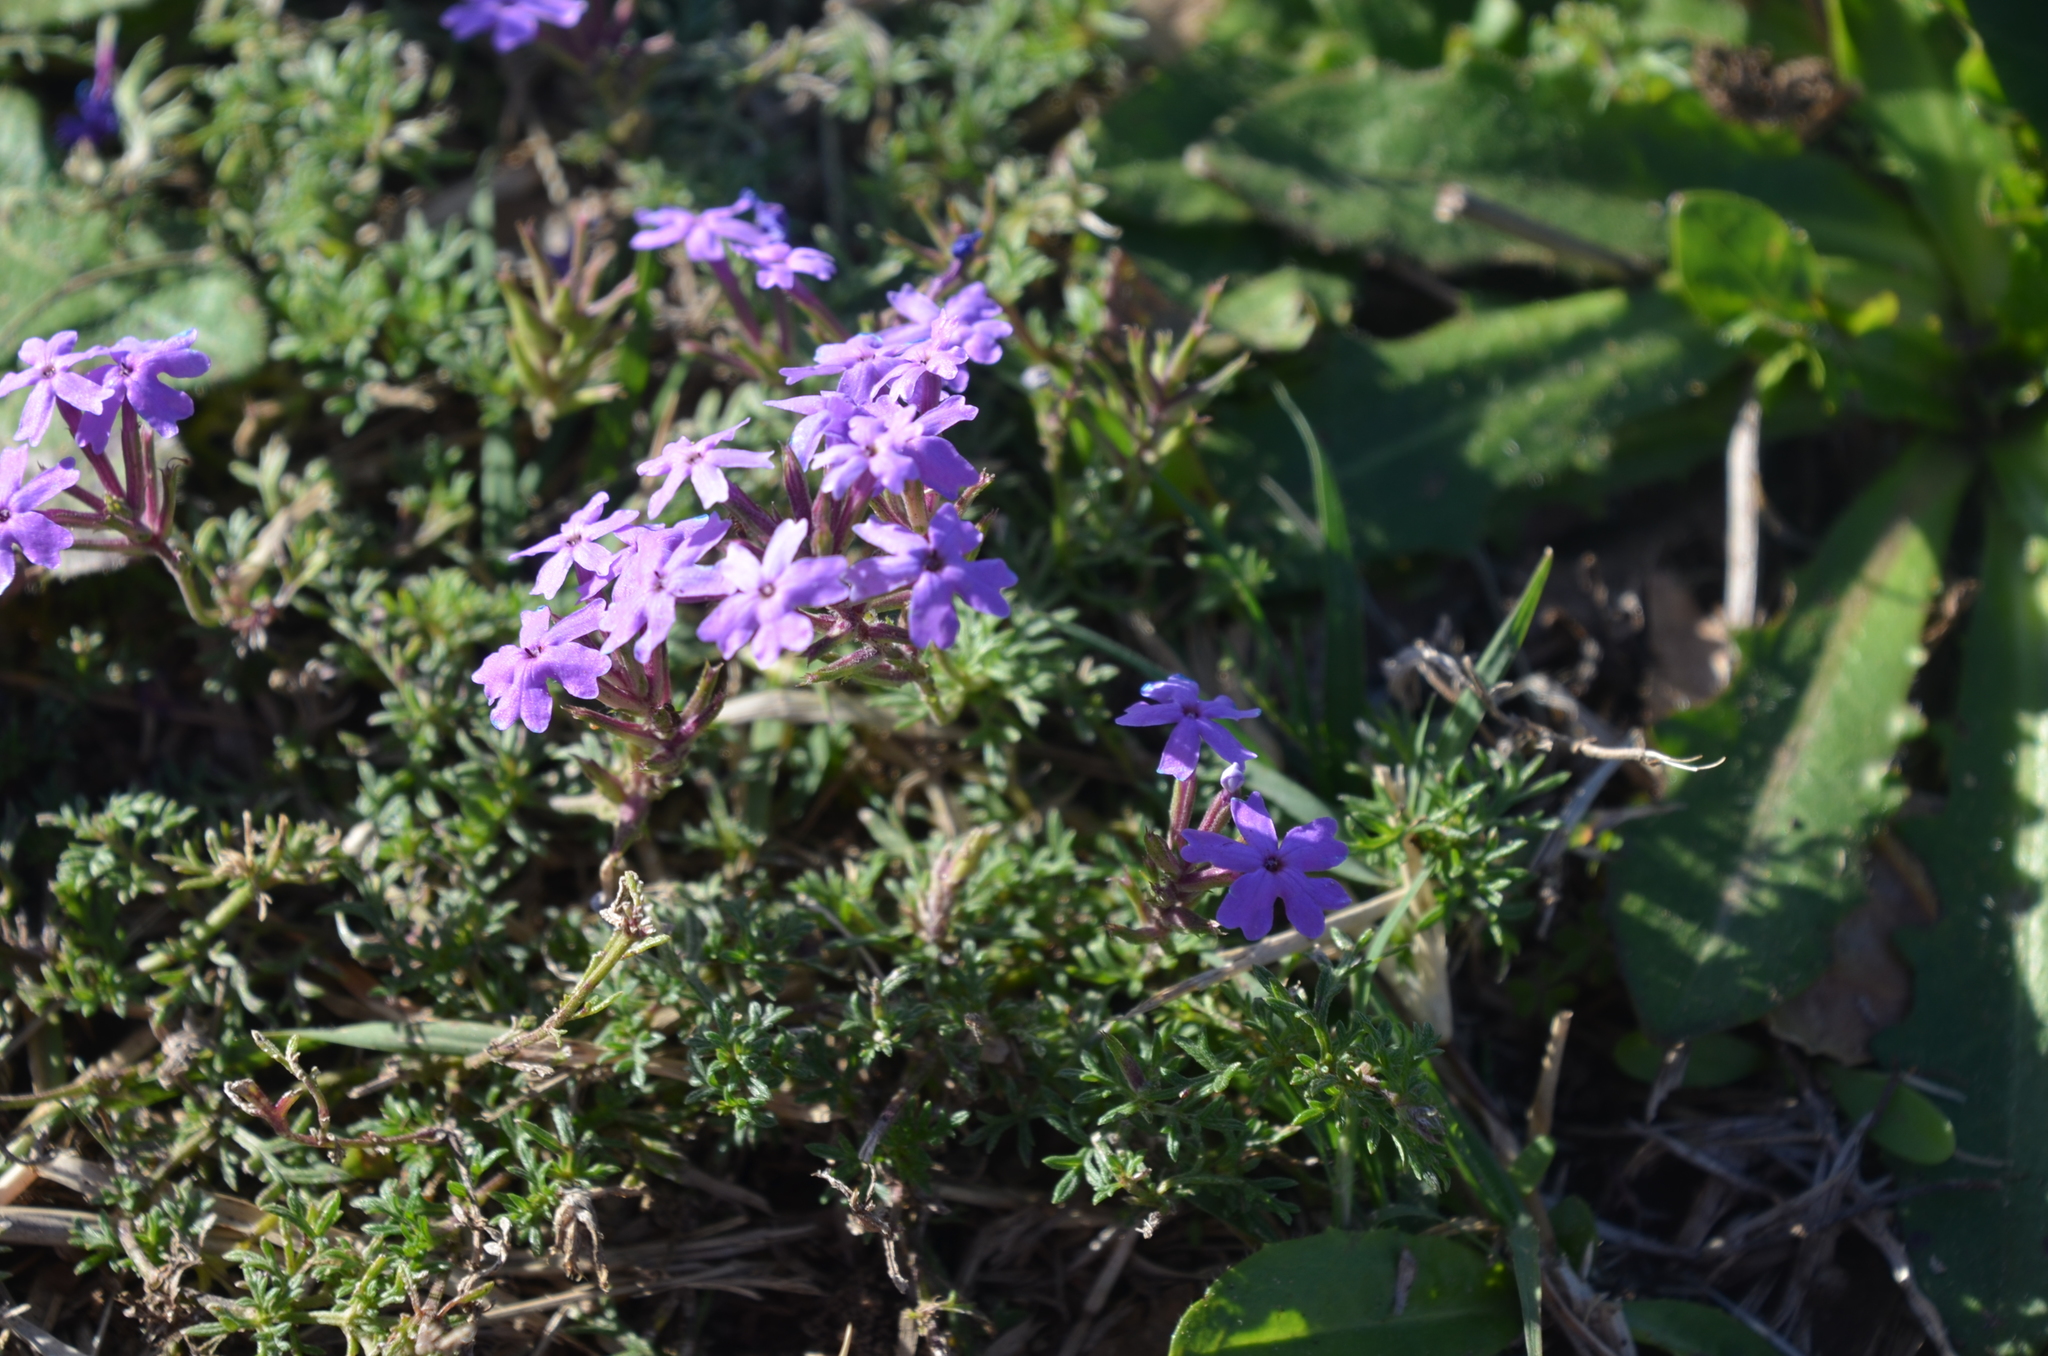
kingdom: Plantae
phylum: Tracheophyta
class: Magnoliopsida
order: Lamiales
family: Verbenaceae
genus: Verbena
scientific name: Verbena tenera
